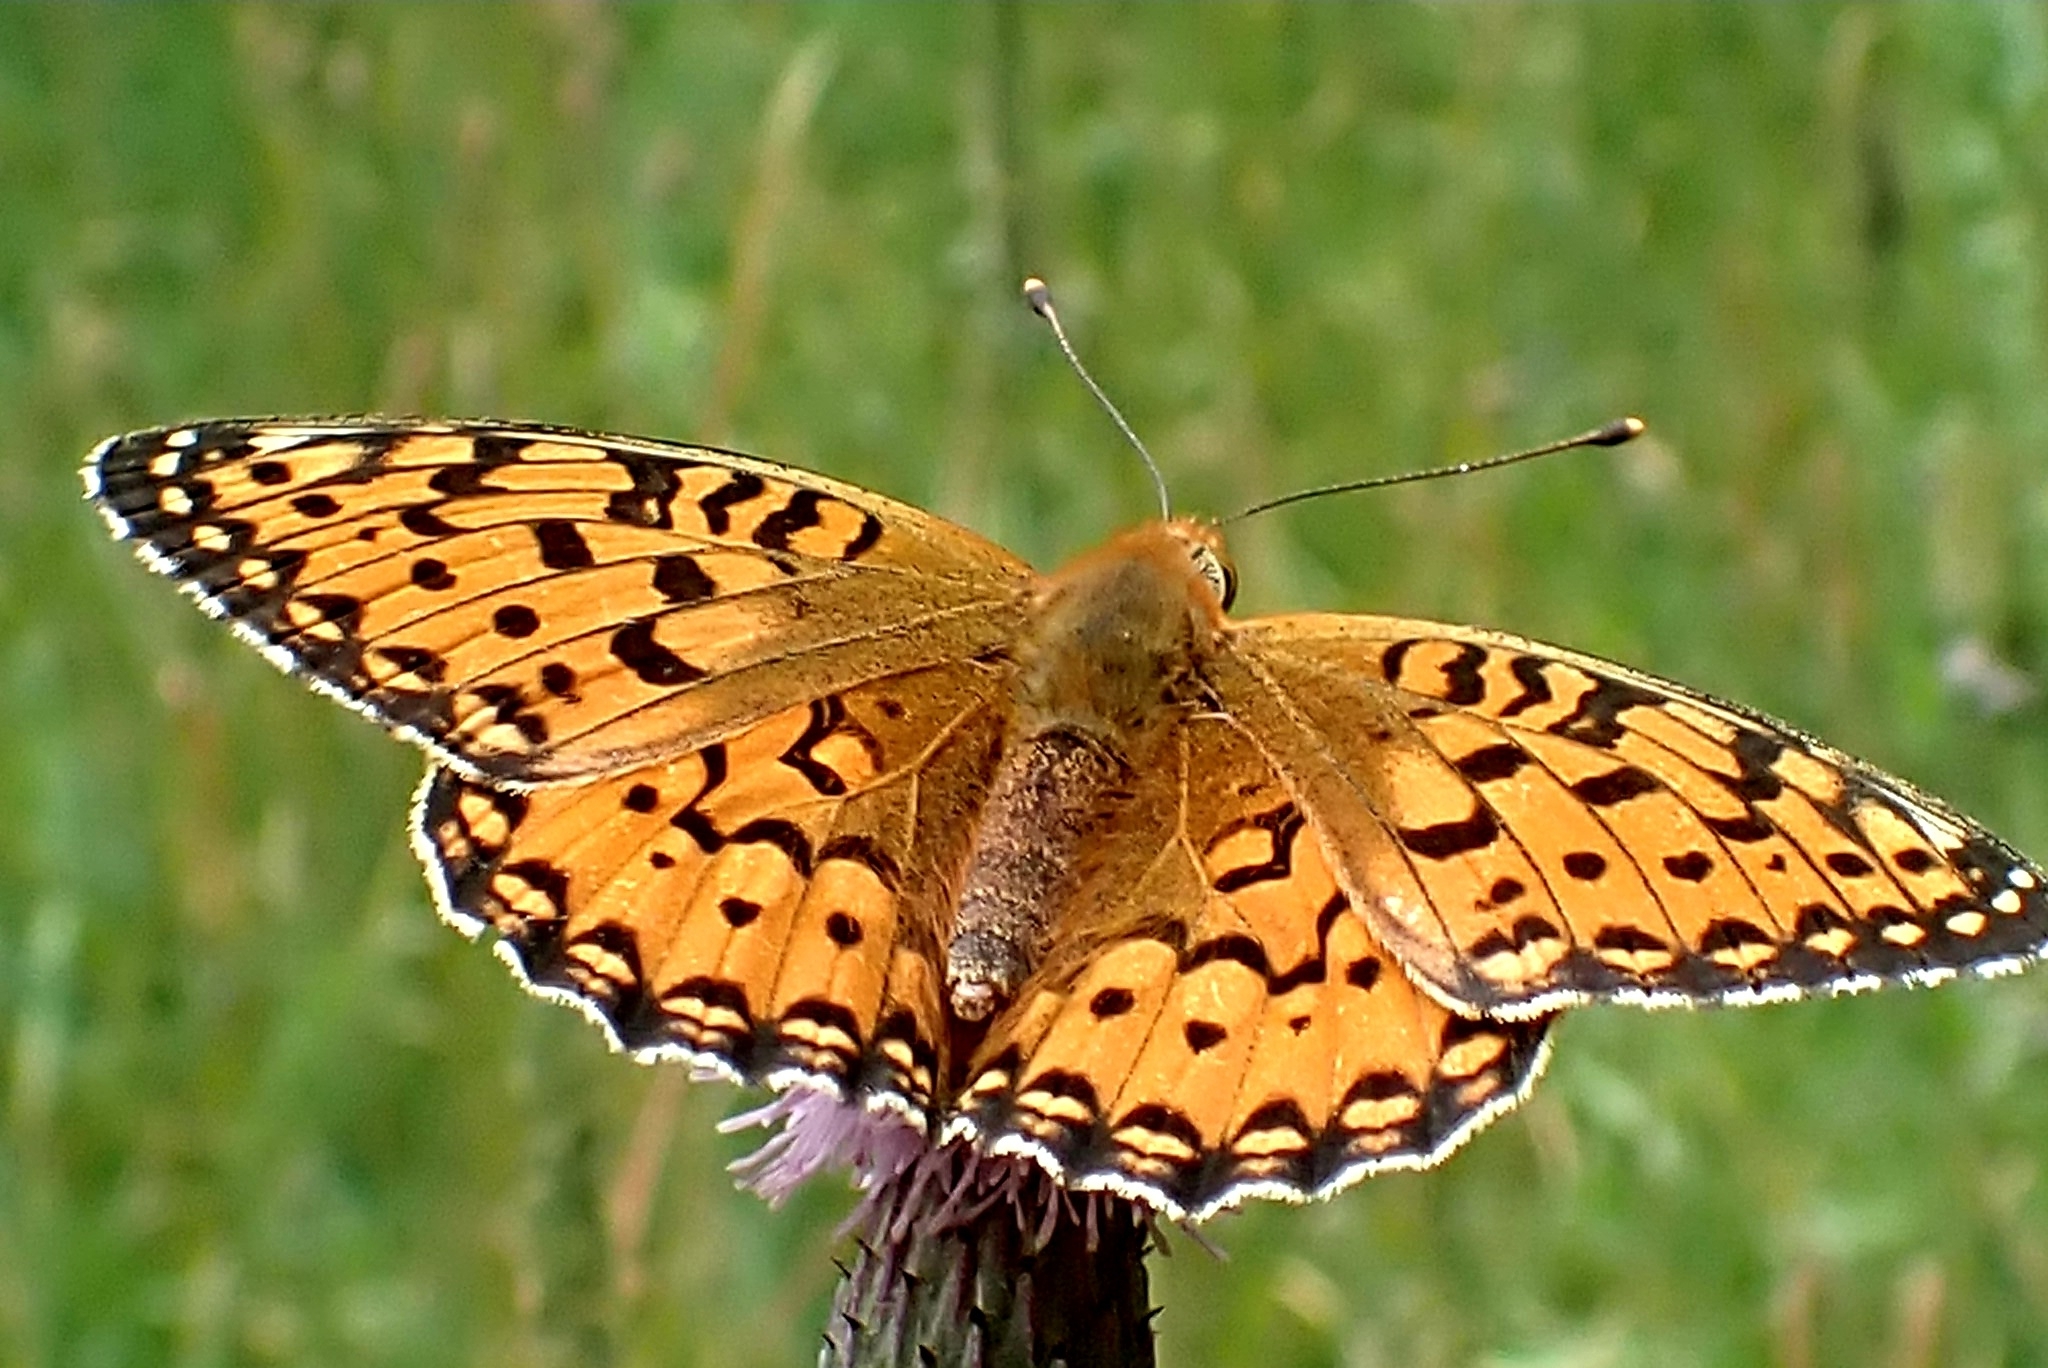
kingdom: Animalia
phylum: Arthropoda
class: Insecta
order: Lepidoptera
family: Nymphalidae
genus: Speyeria
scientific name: Speyeria aglaja
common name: Dark green fritillary
